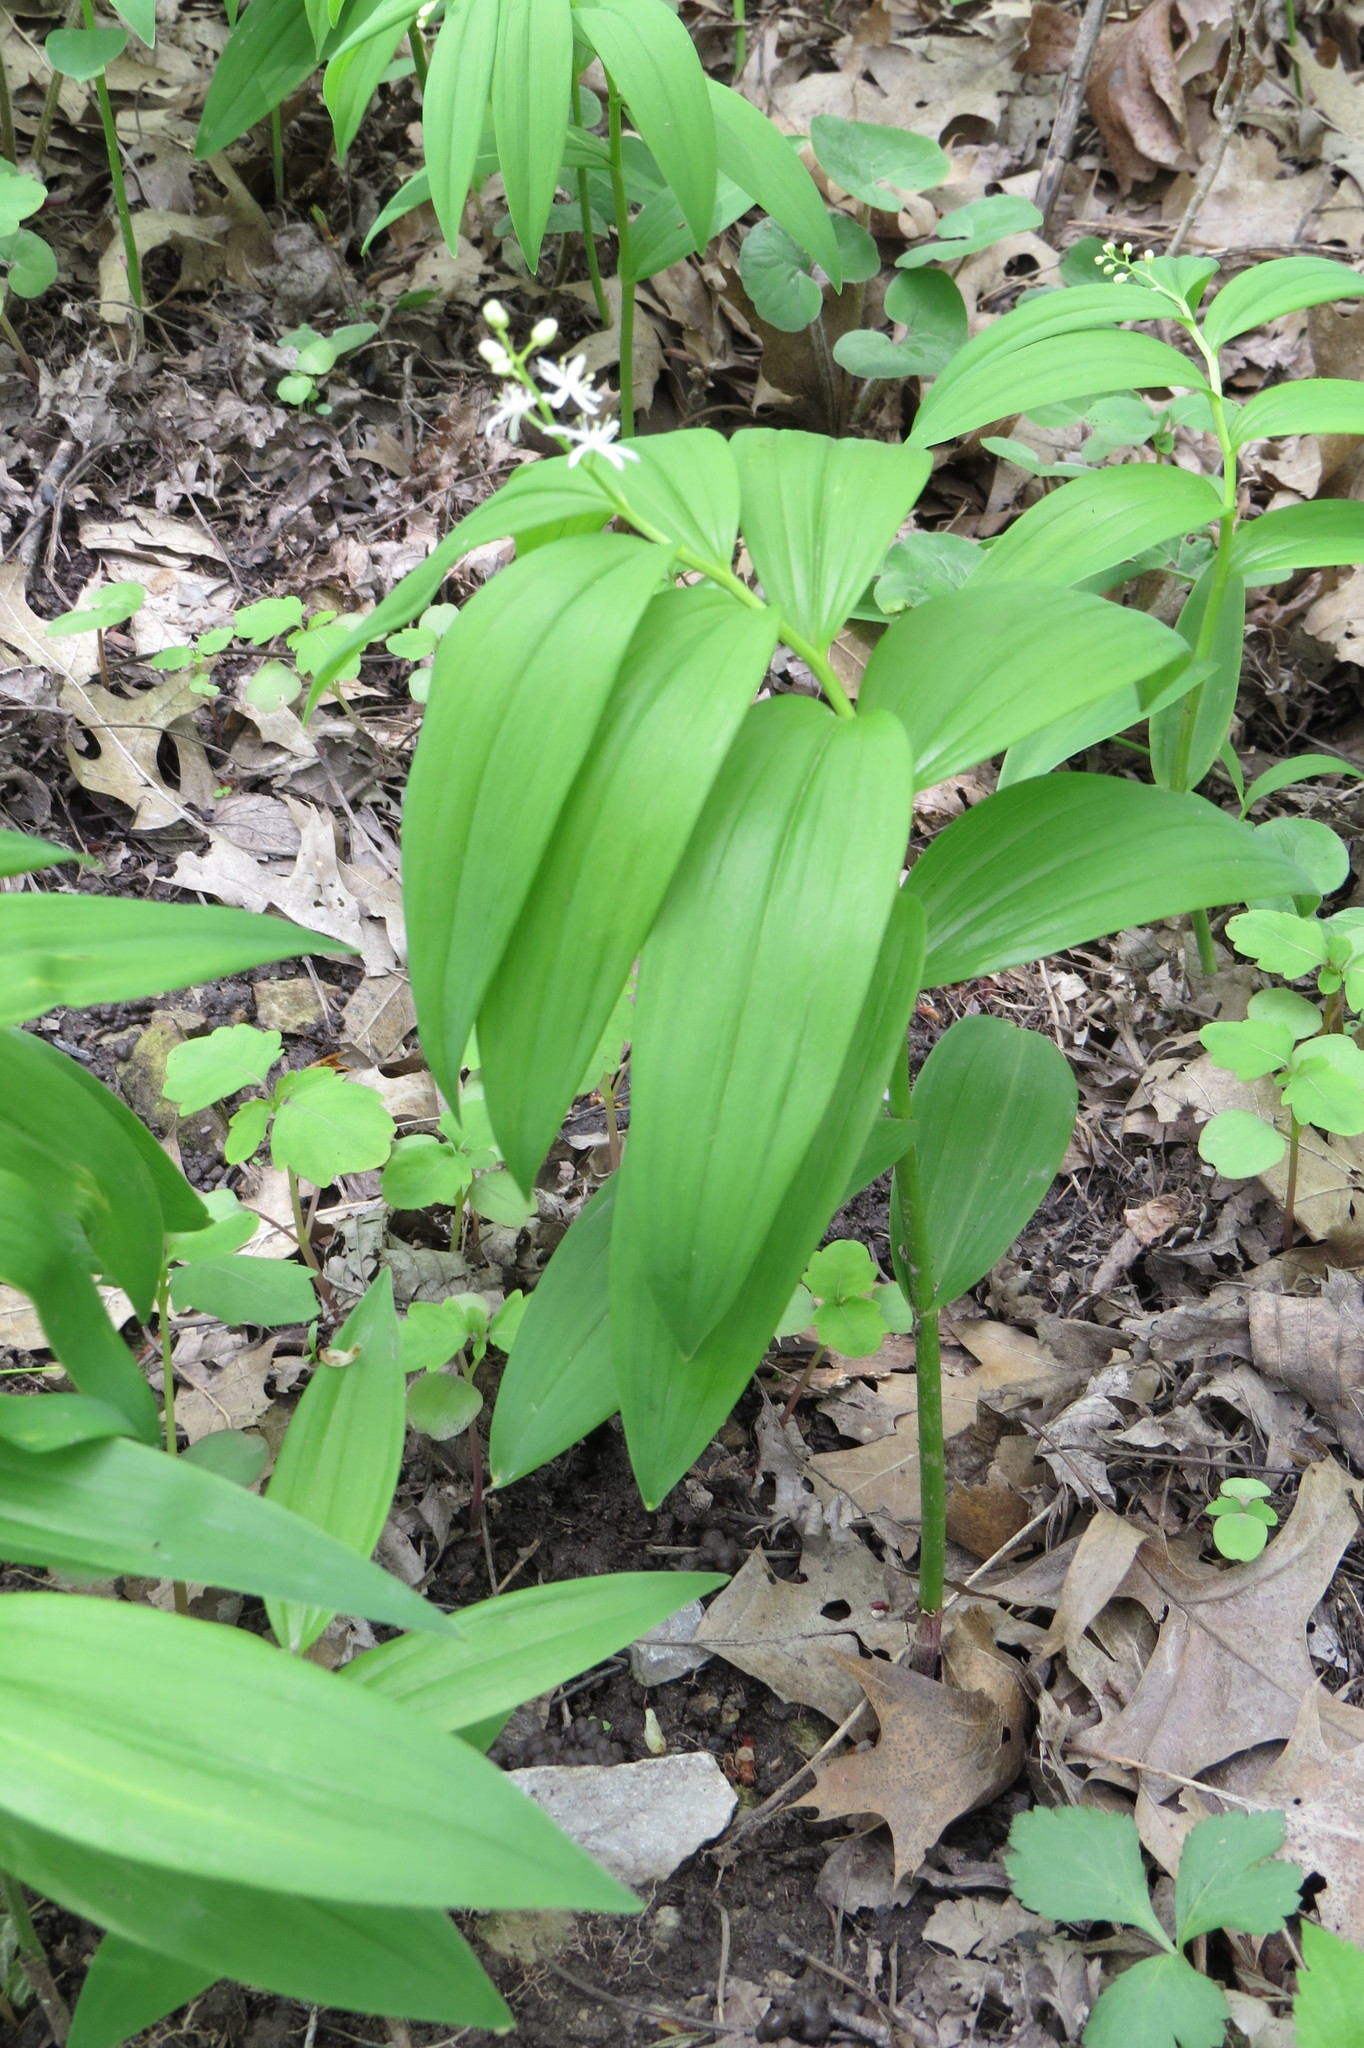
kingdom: Plantae
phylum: Tracheophyta
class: Liliopsida
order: Asparagales
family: Asparagaceae
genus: Maianthemum
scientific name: Maianthemum stellatum
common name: Little false solomon's seal
